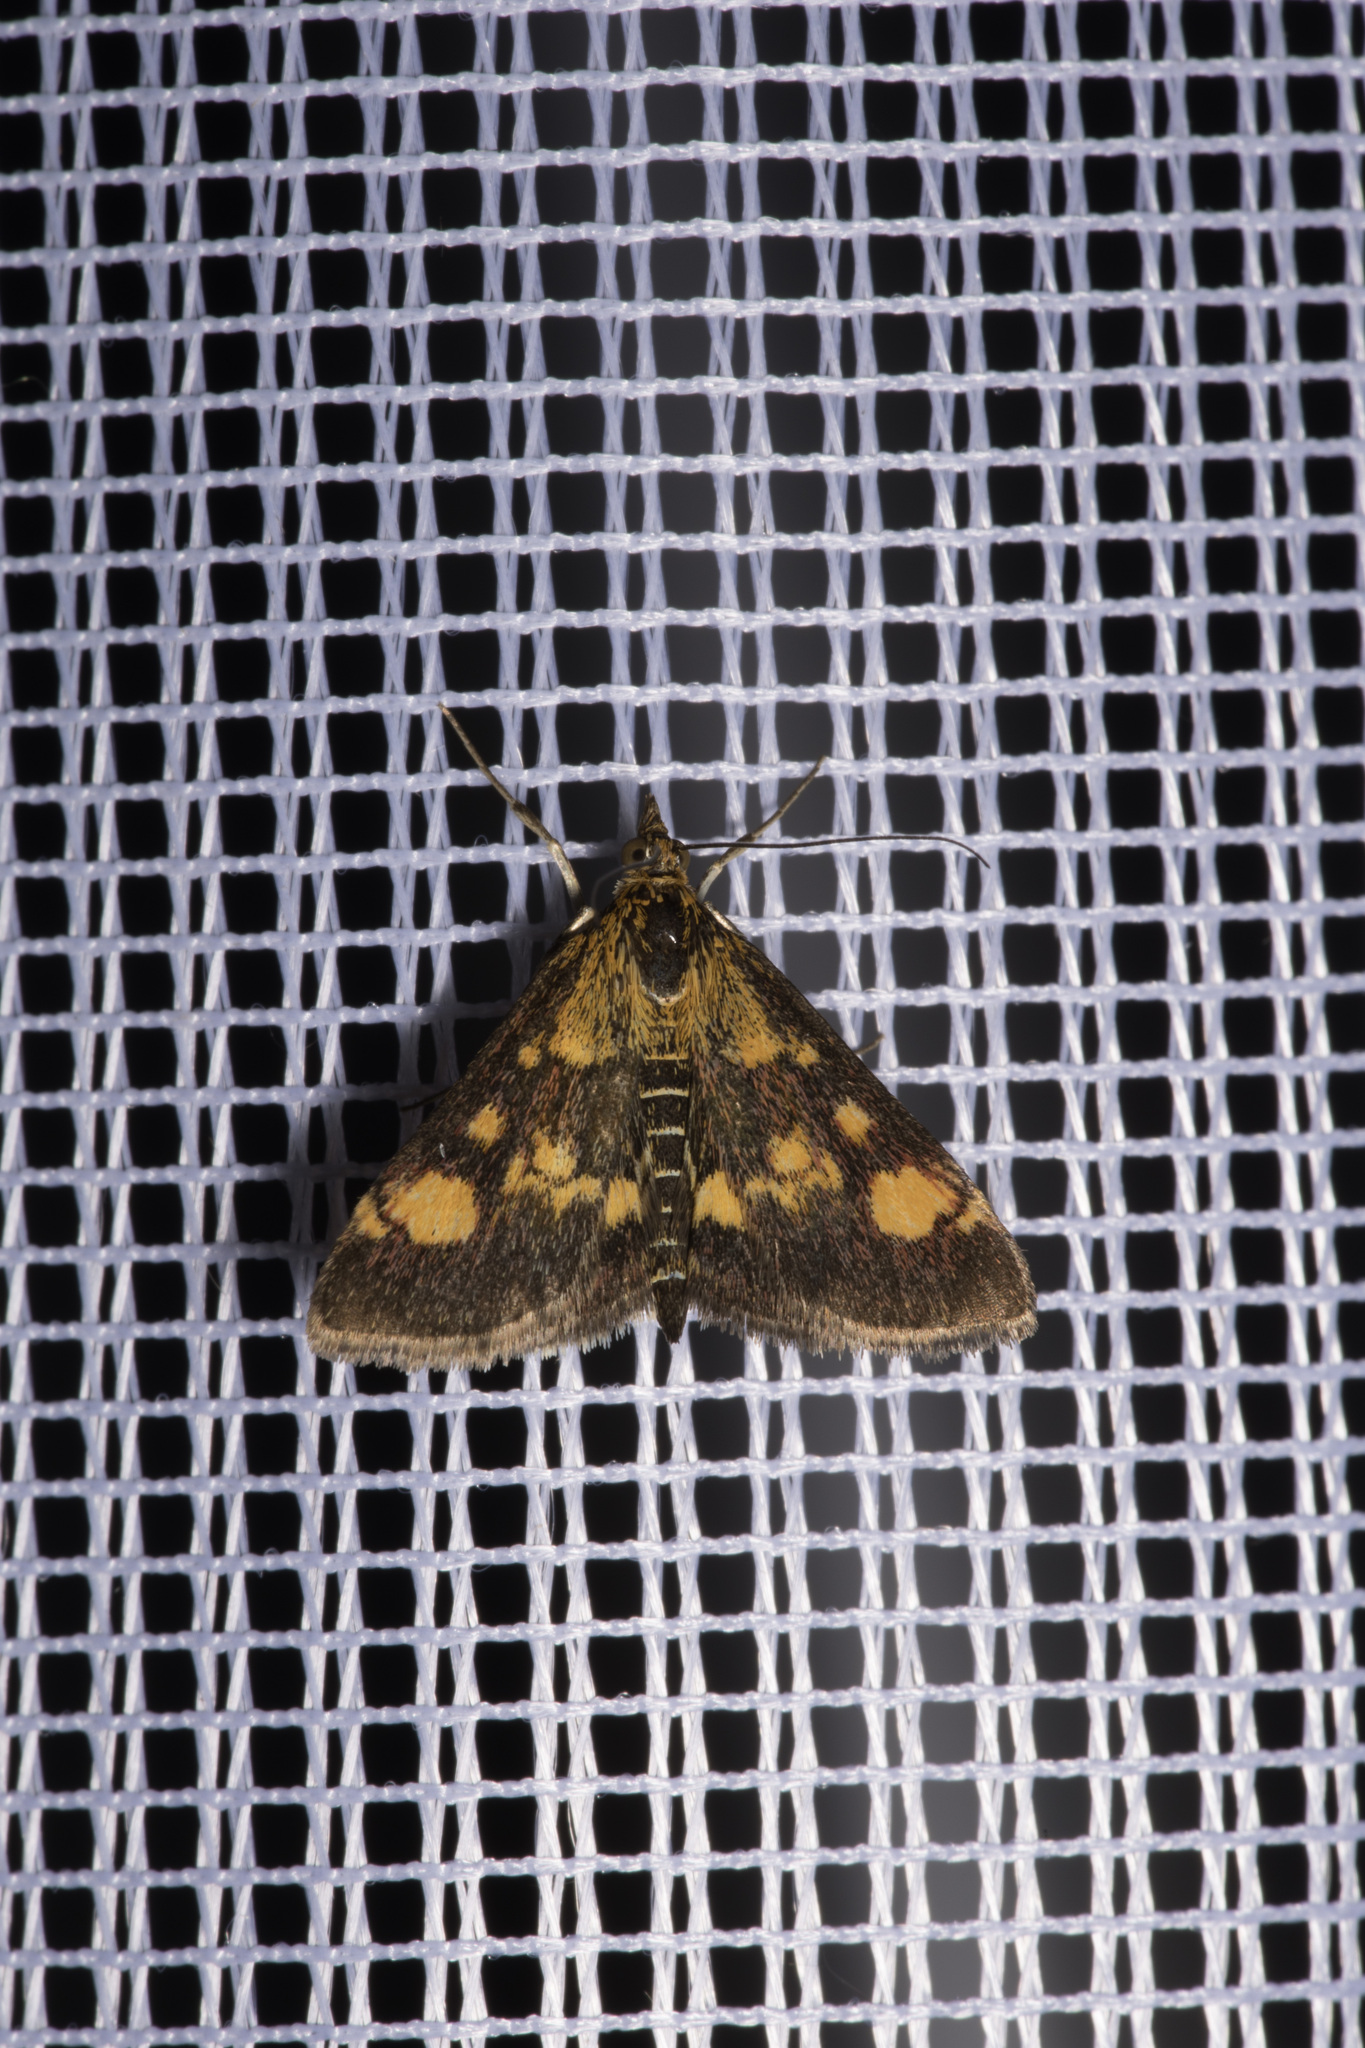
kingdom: Animalia
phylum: Arthropoda
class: Insecta
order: Lepidoptera
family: Crambidae
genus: Pyrausta
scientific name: Pyrausta aurata
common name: Small purple & gold
